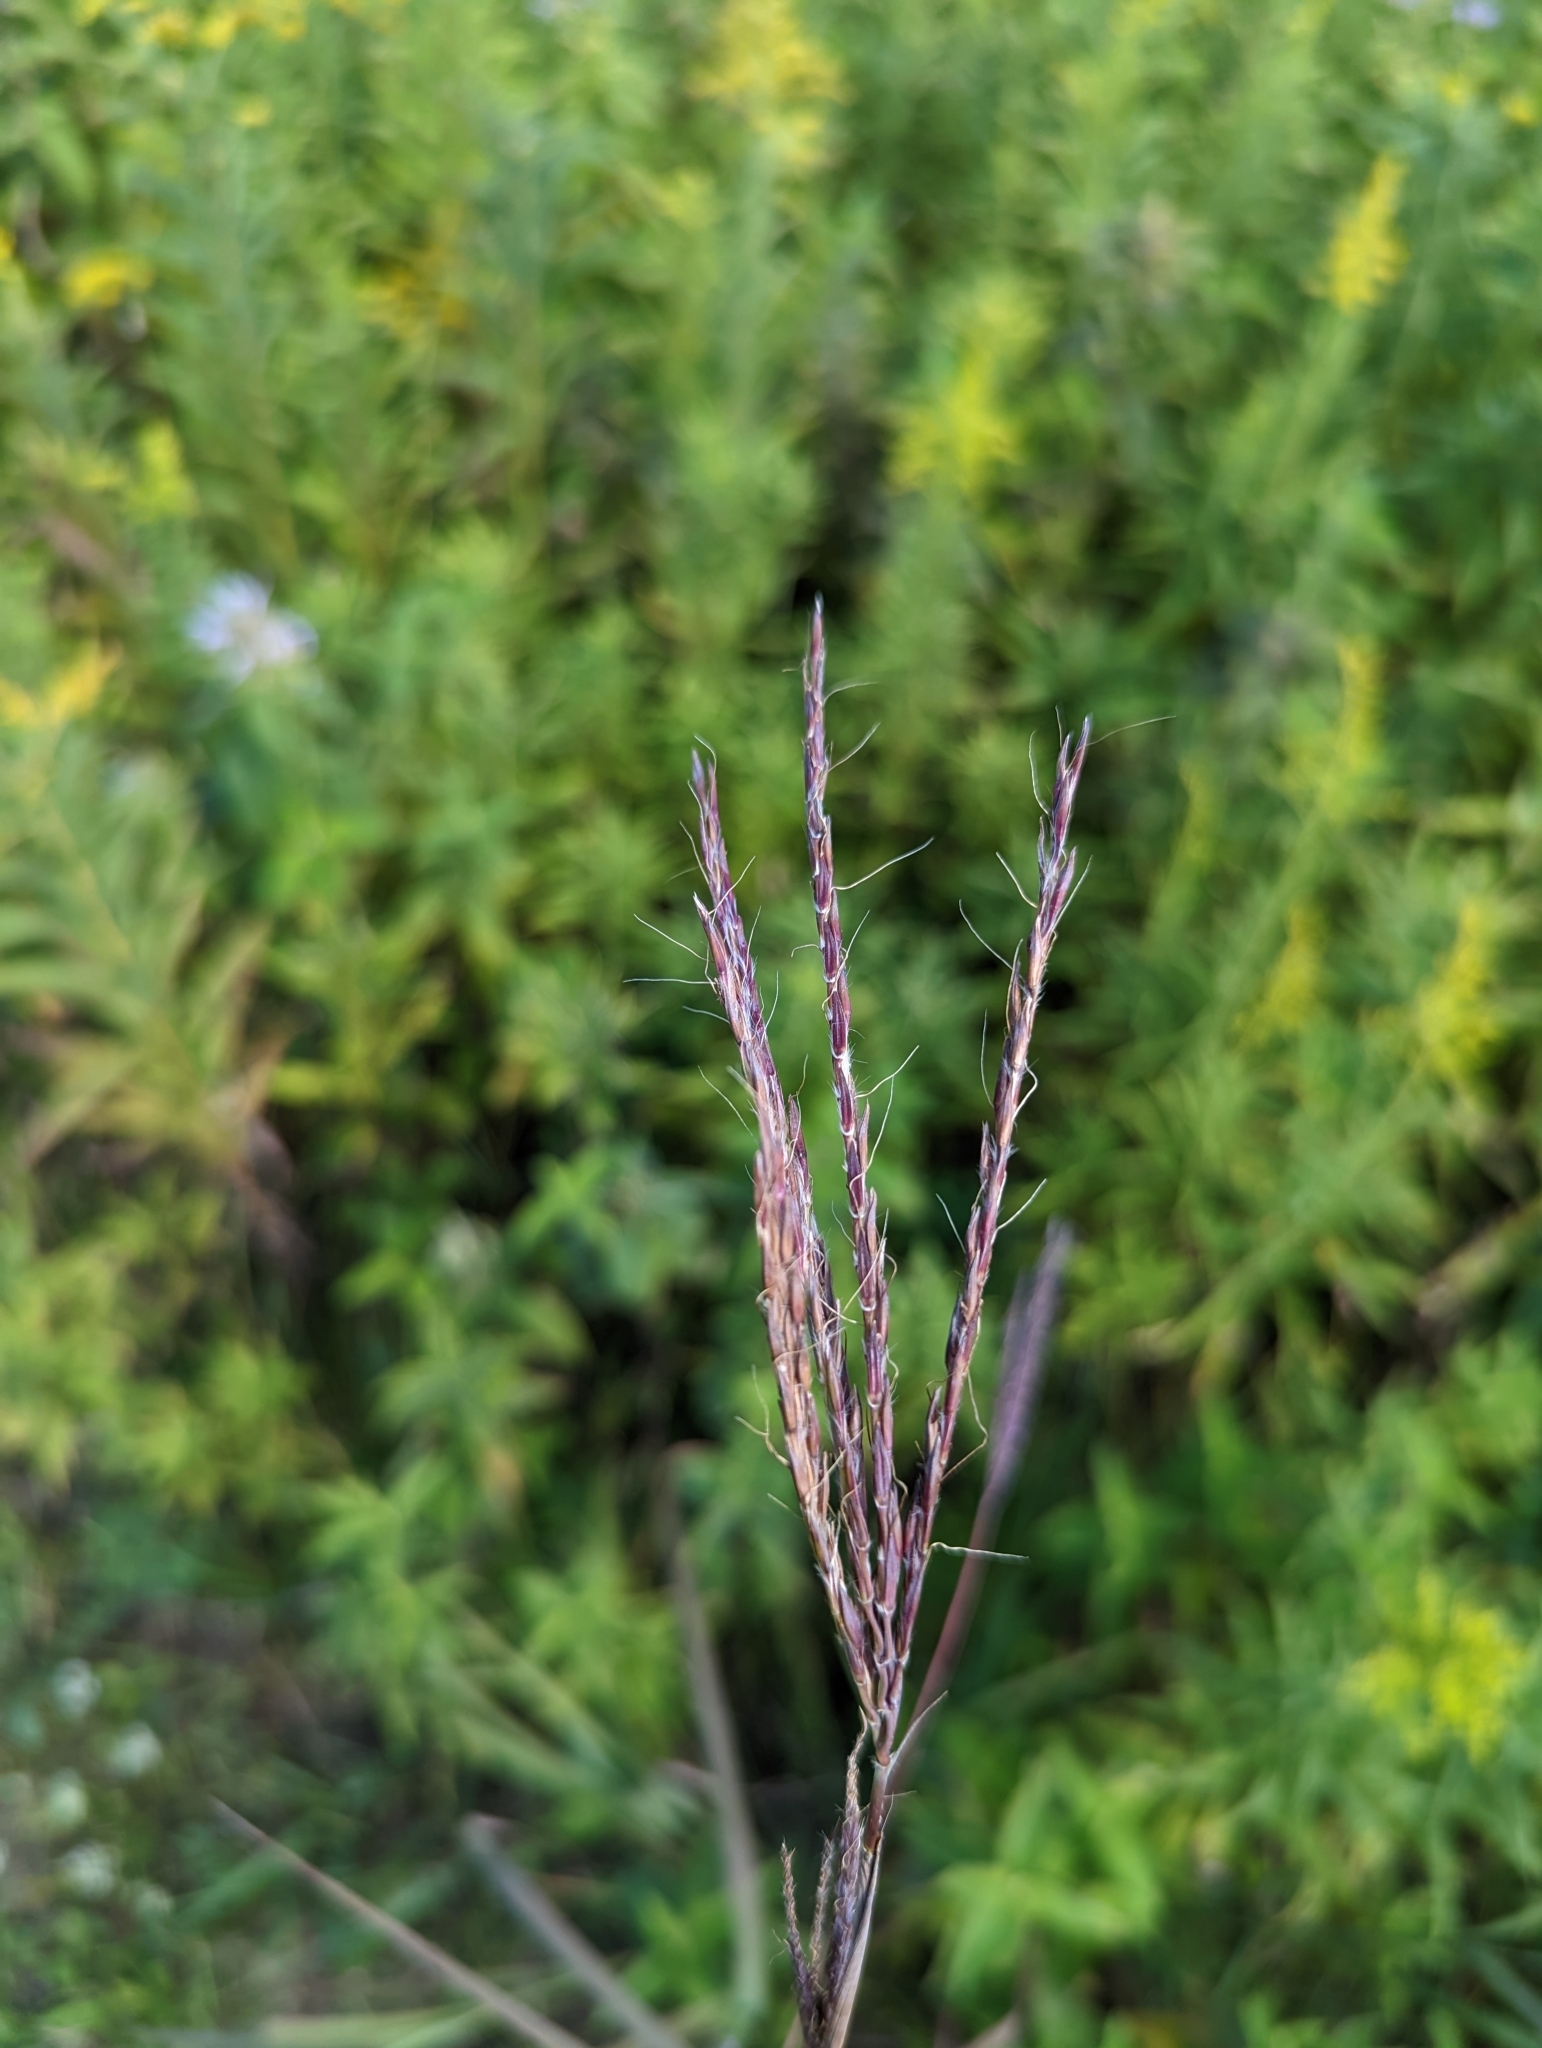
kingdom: Plantae
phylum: Tracheophyta
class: Liliopsida
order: Poales
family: Poaceae
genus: Andropogon
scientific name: Andropogon gerardi
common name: Big bluestem
